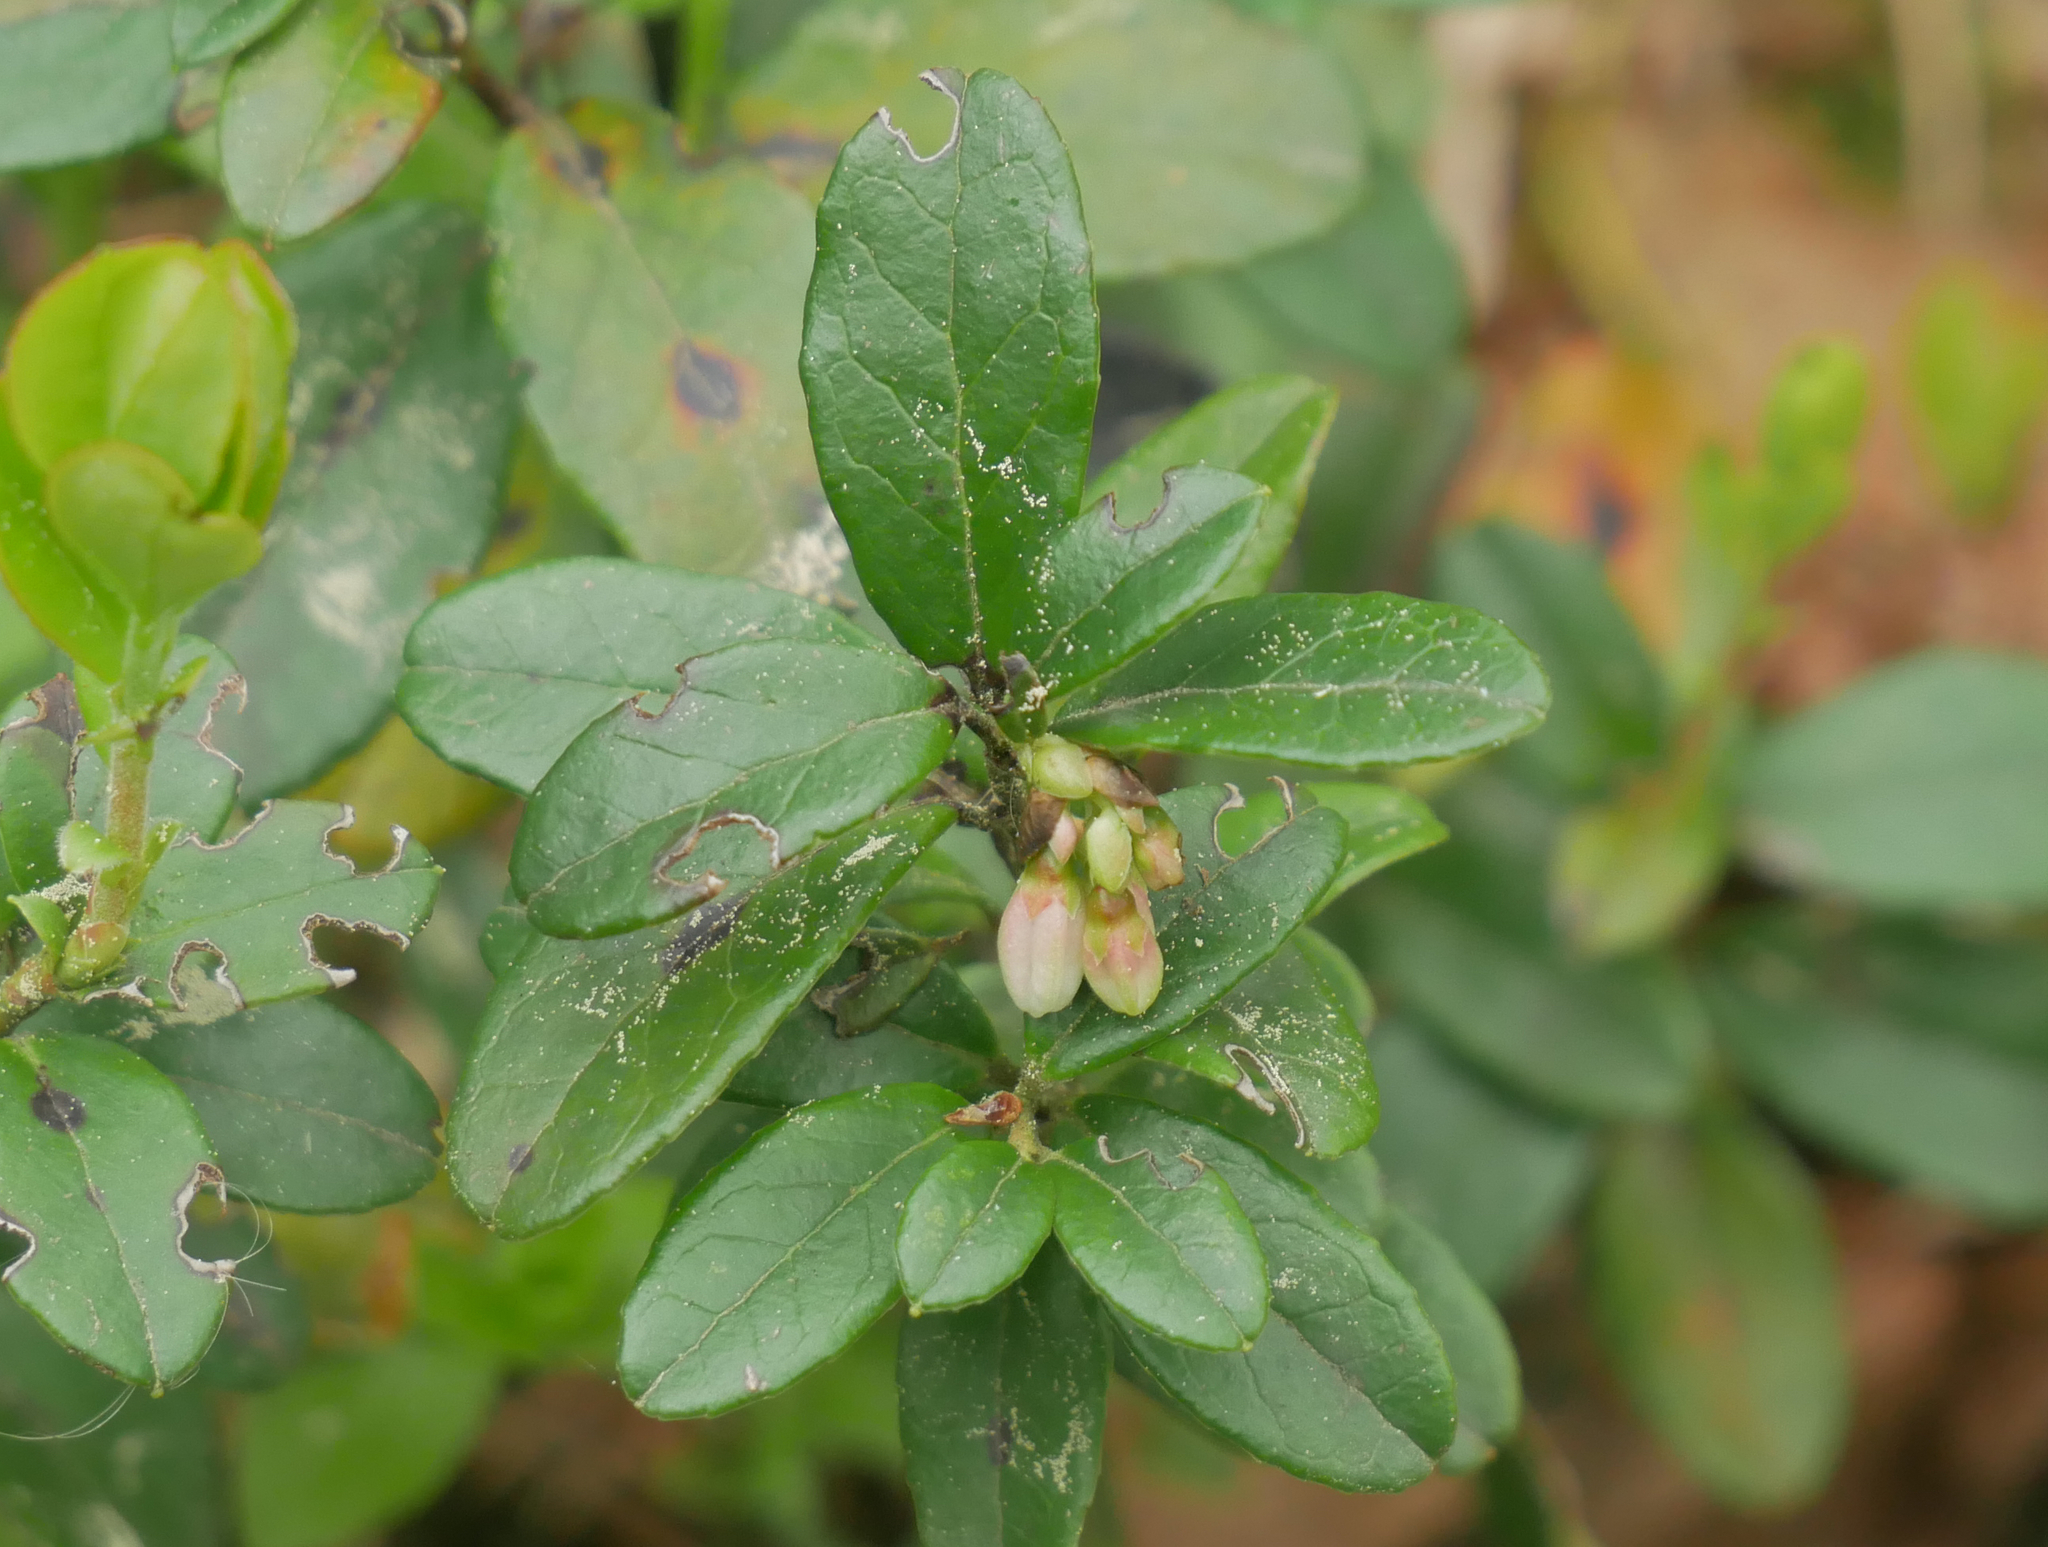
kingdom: Plantae
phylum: Tracheophyta
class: Magnoliopsida
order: Ericales
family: Ericaceae
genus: Vaccinium
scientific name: Vaccinium vitis-idaea
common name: Cowberry
